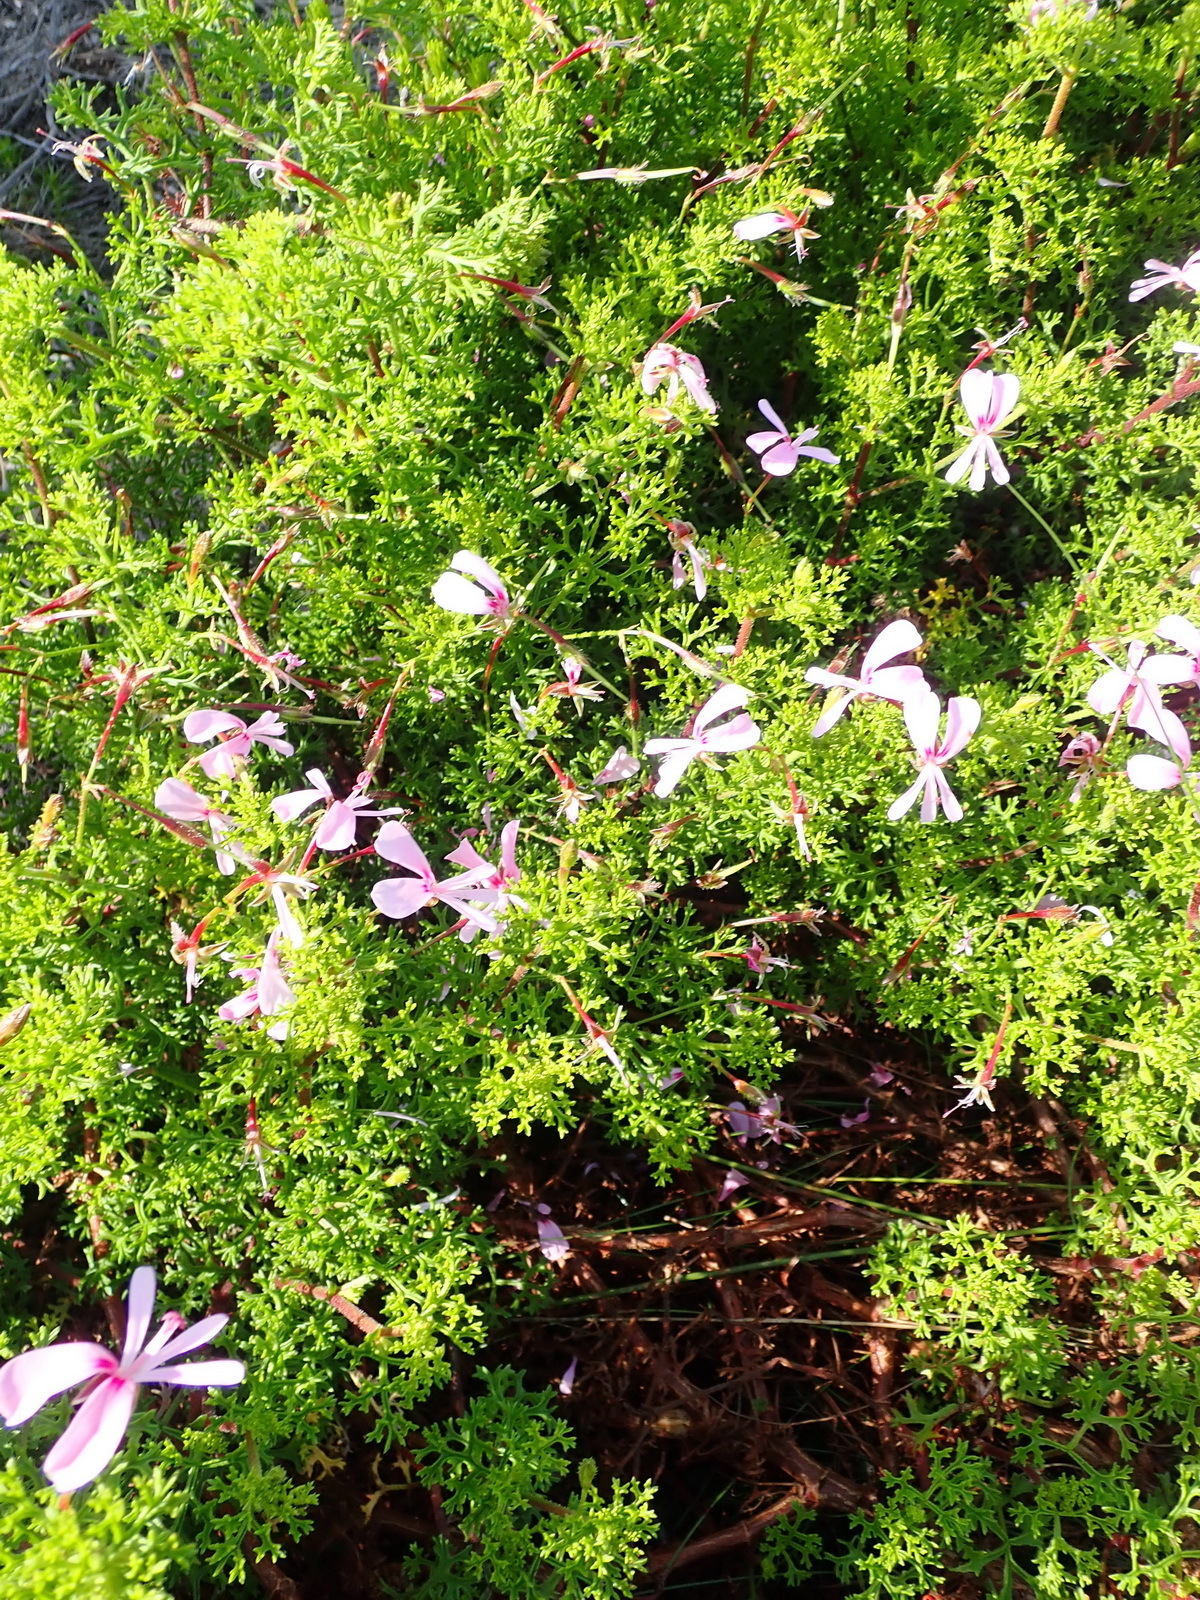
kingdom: Plantae
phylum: Tracheophyta
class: Magnoliopsida
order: Geraniales
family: Geraniaceae
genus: Pelargonium
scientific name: Pelargonium fruticosum
